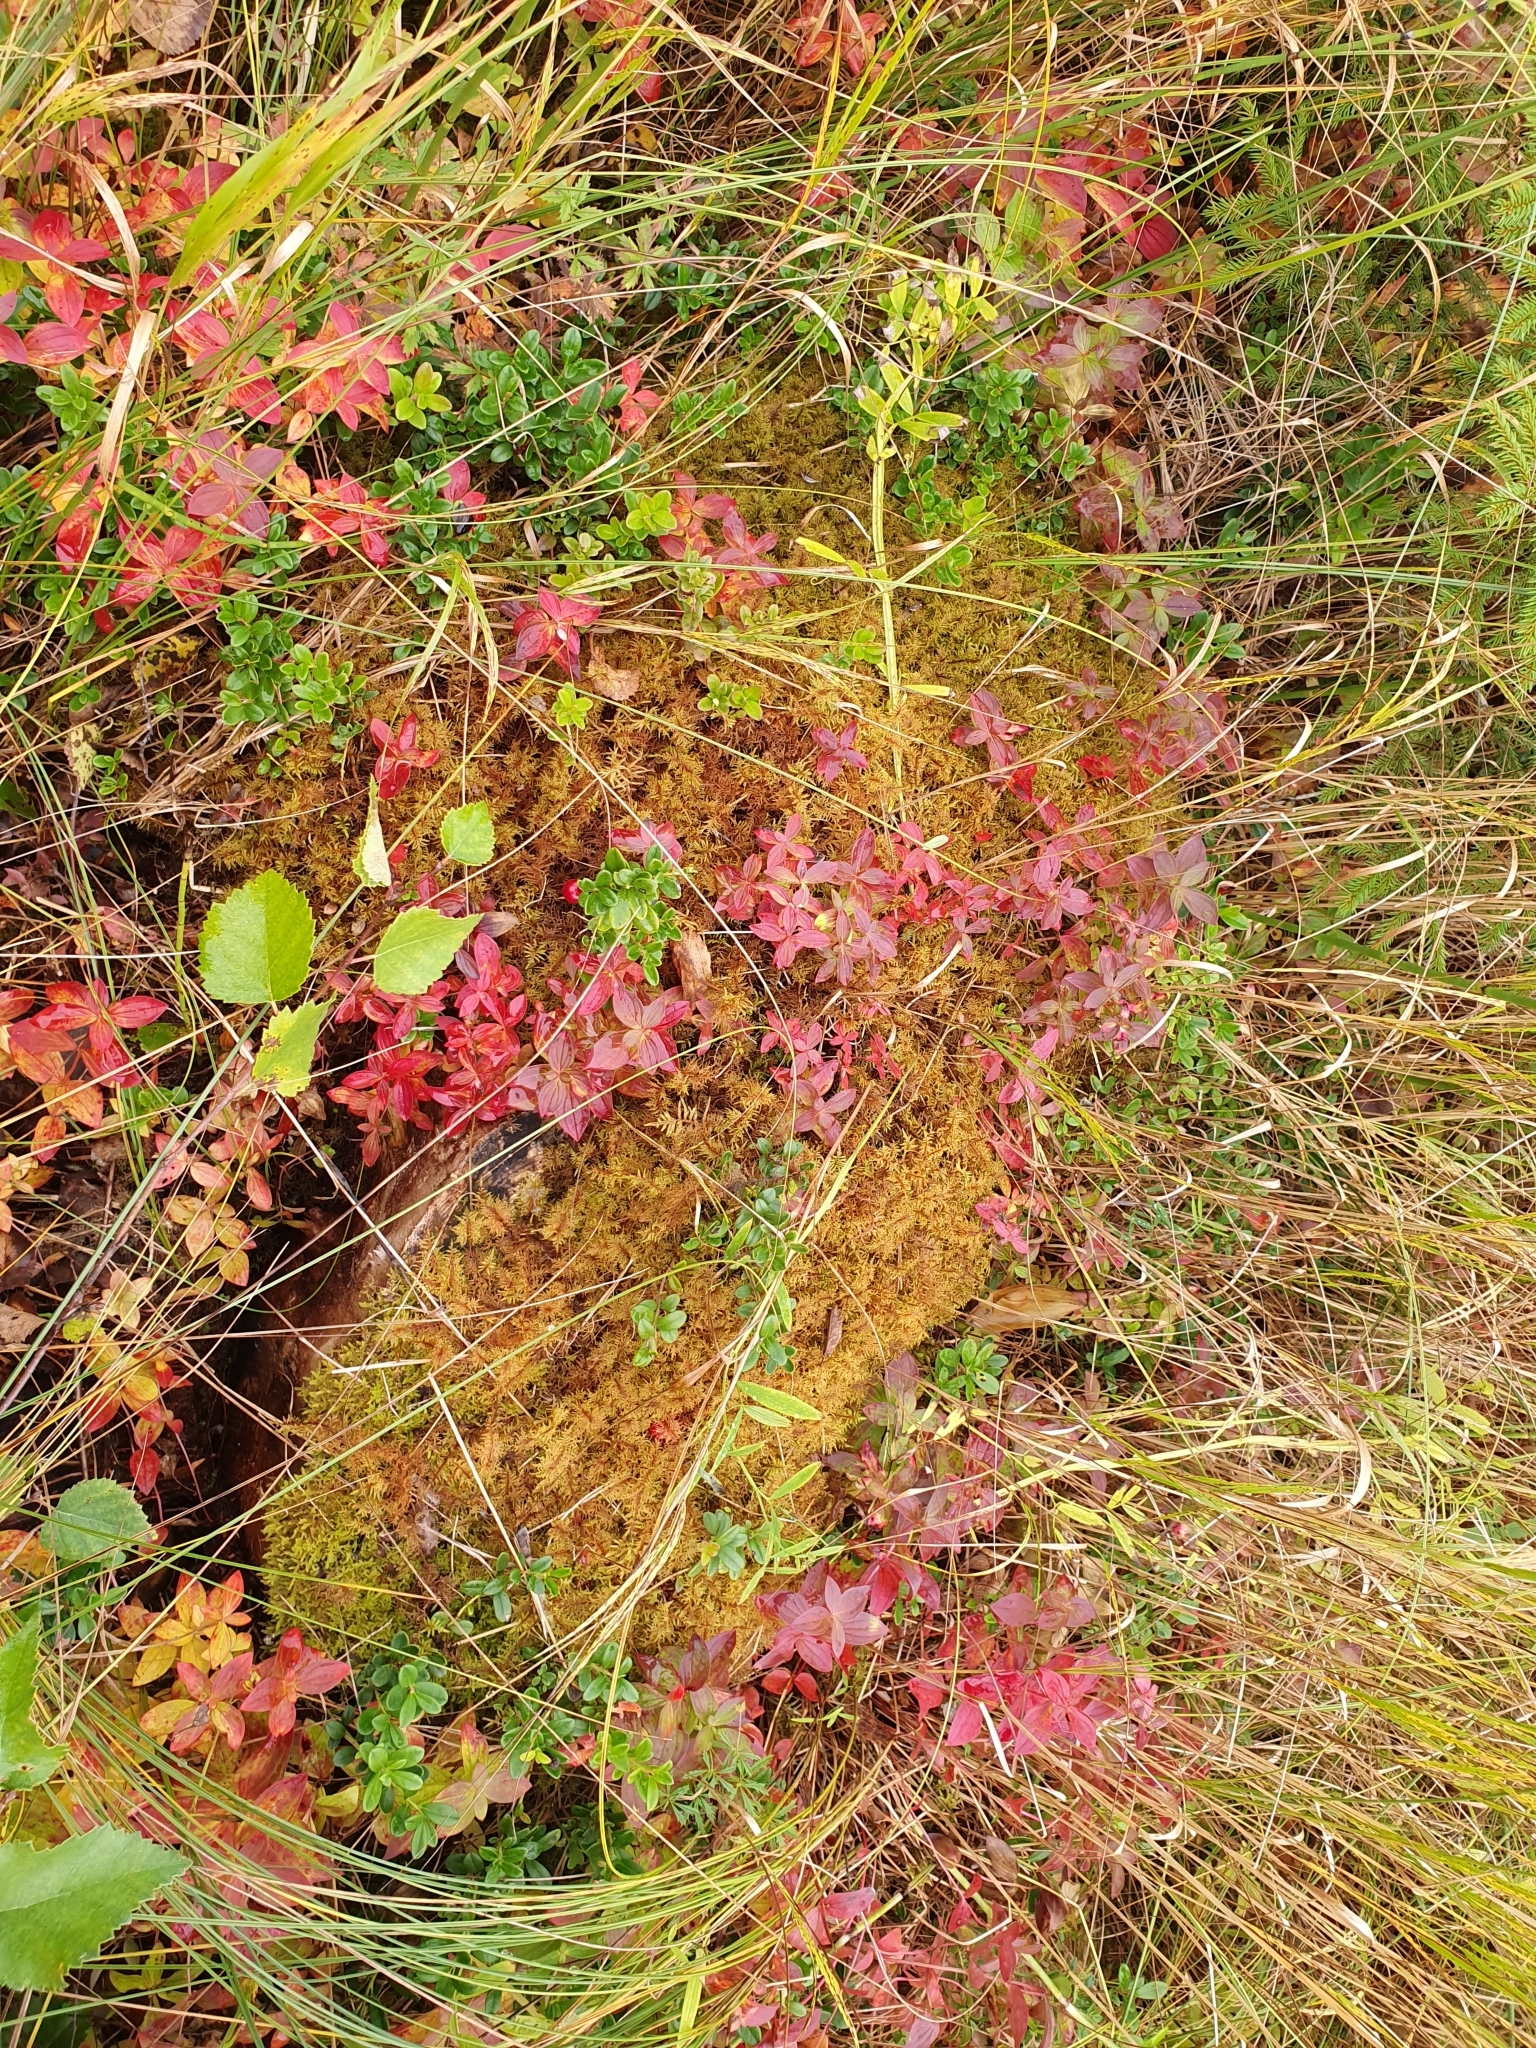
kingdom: Plantae
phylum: Tracheophyta
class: Magnoliopsida
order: Fabales
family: Fabaceae
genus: Lathyrus
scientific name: Lathyrus palustris
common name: Marsh pea
